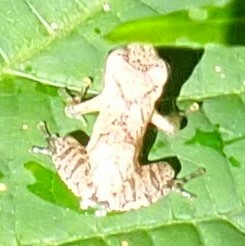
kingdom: Animalia
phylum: Chordata
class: Amphibia
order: Anura
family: Hylidae
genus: Pseudacris
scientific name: Pseudacris crucifer
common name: Spring peeper
